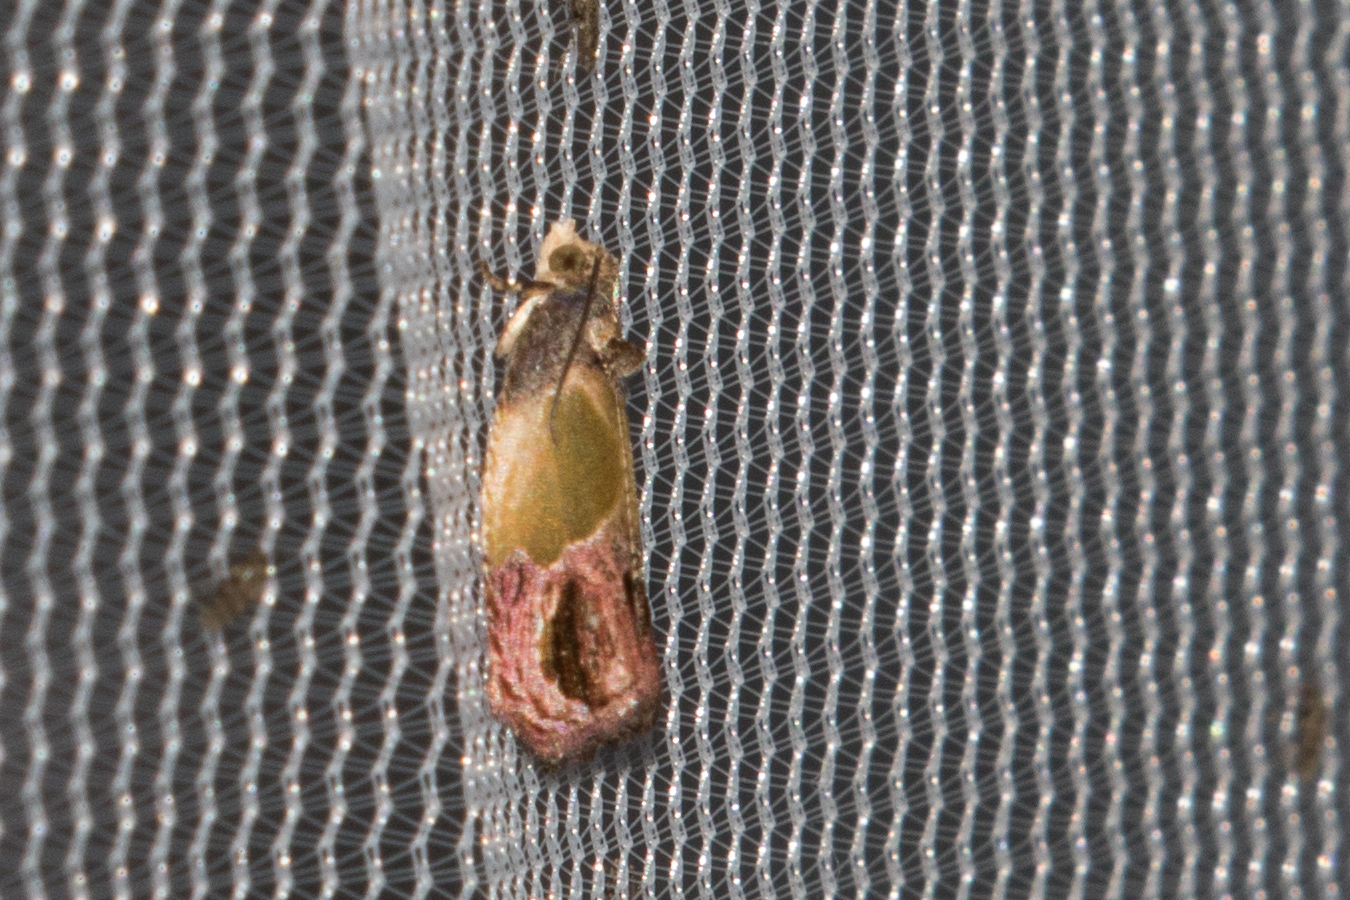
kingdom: Animalia
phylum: Arthropoda
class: Insecta
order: Lepidoptera
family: Tortricidae
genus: Eumarozia
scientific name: Eumarozia malachitana
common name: Sculptured moth
